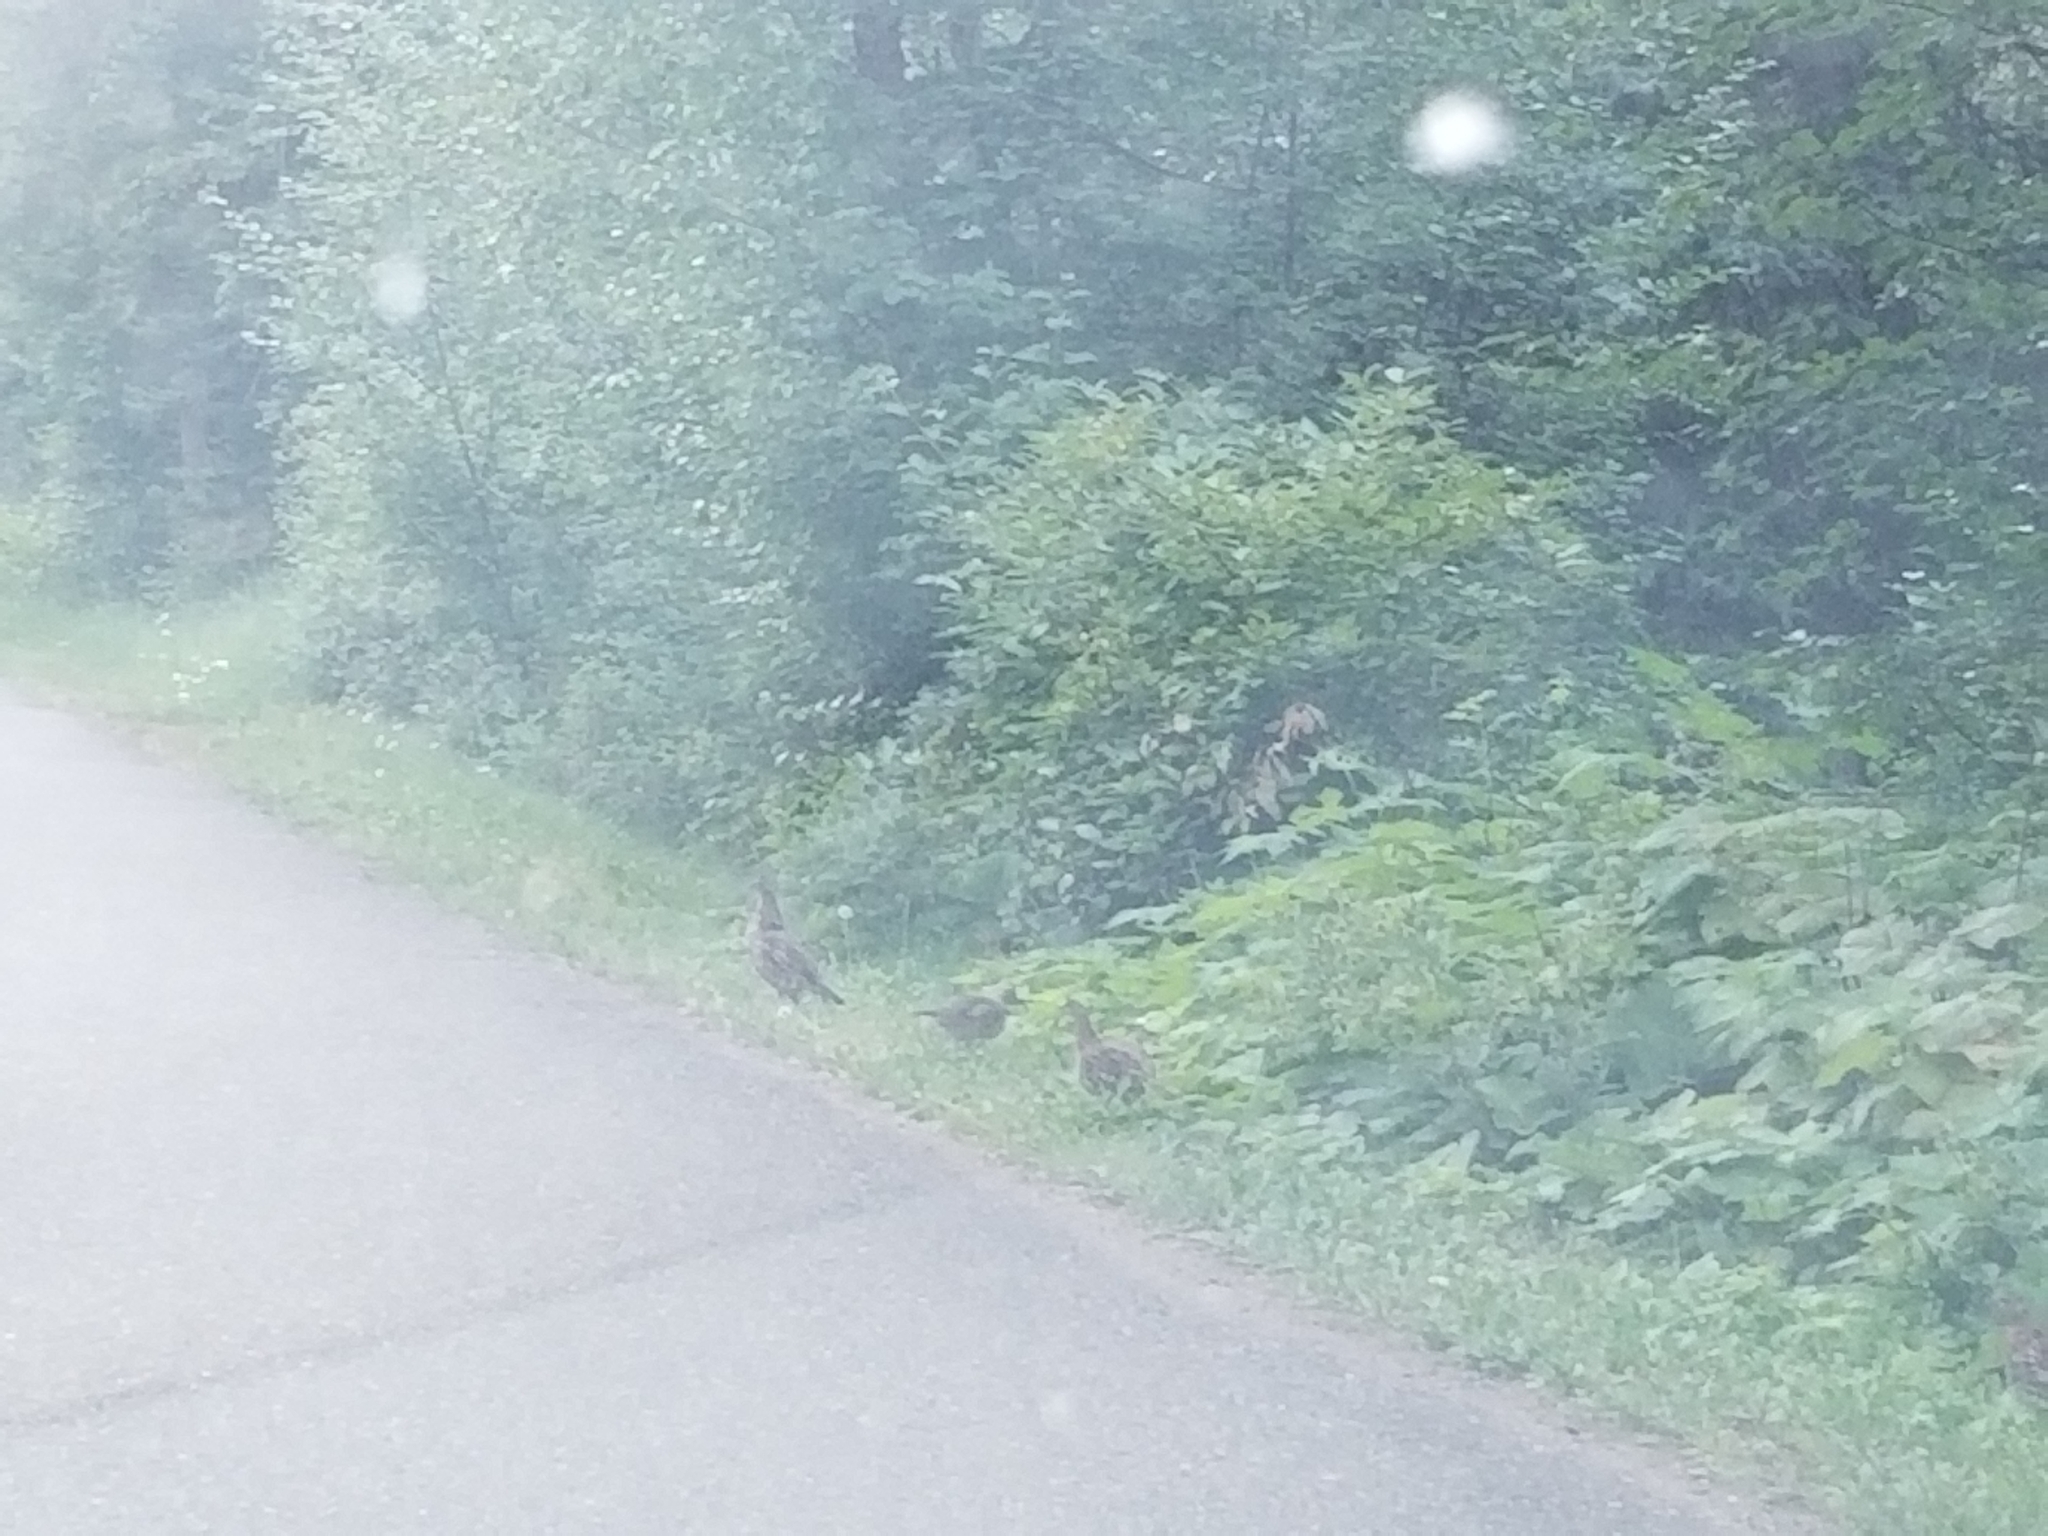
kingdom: Animalia
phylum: Chordata
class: Aves
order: Galliformes
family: Phasianidae
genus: Bonasa
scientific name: Bonasa umbellus
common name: Ruffed grouse
